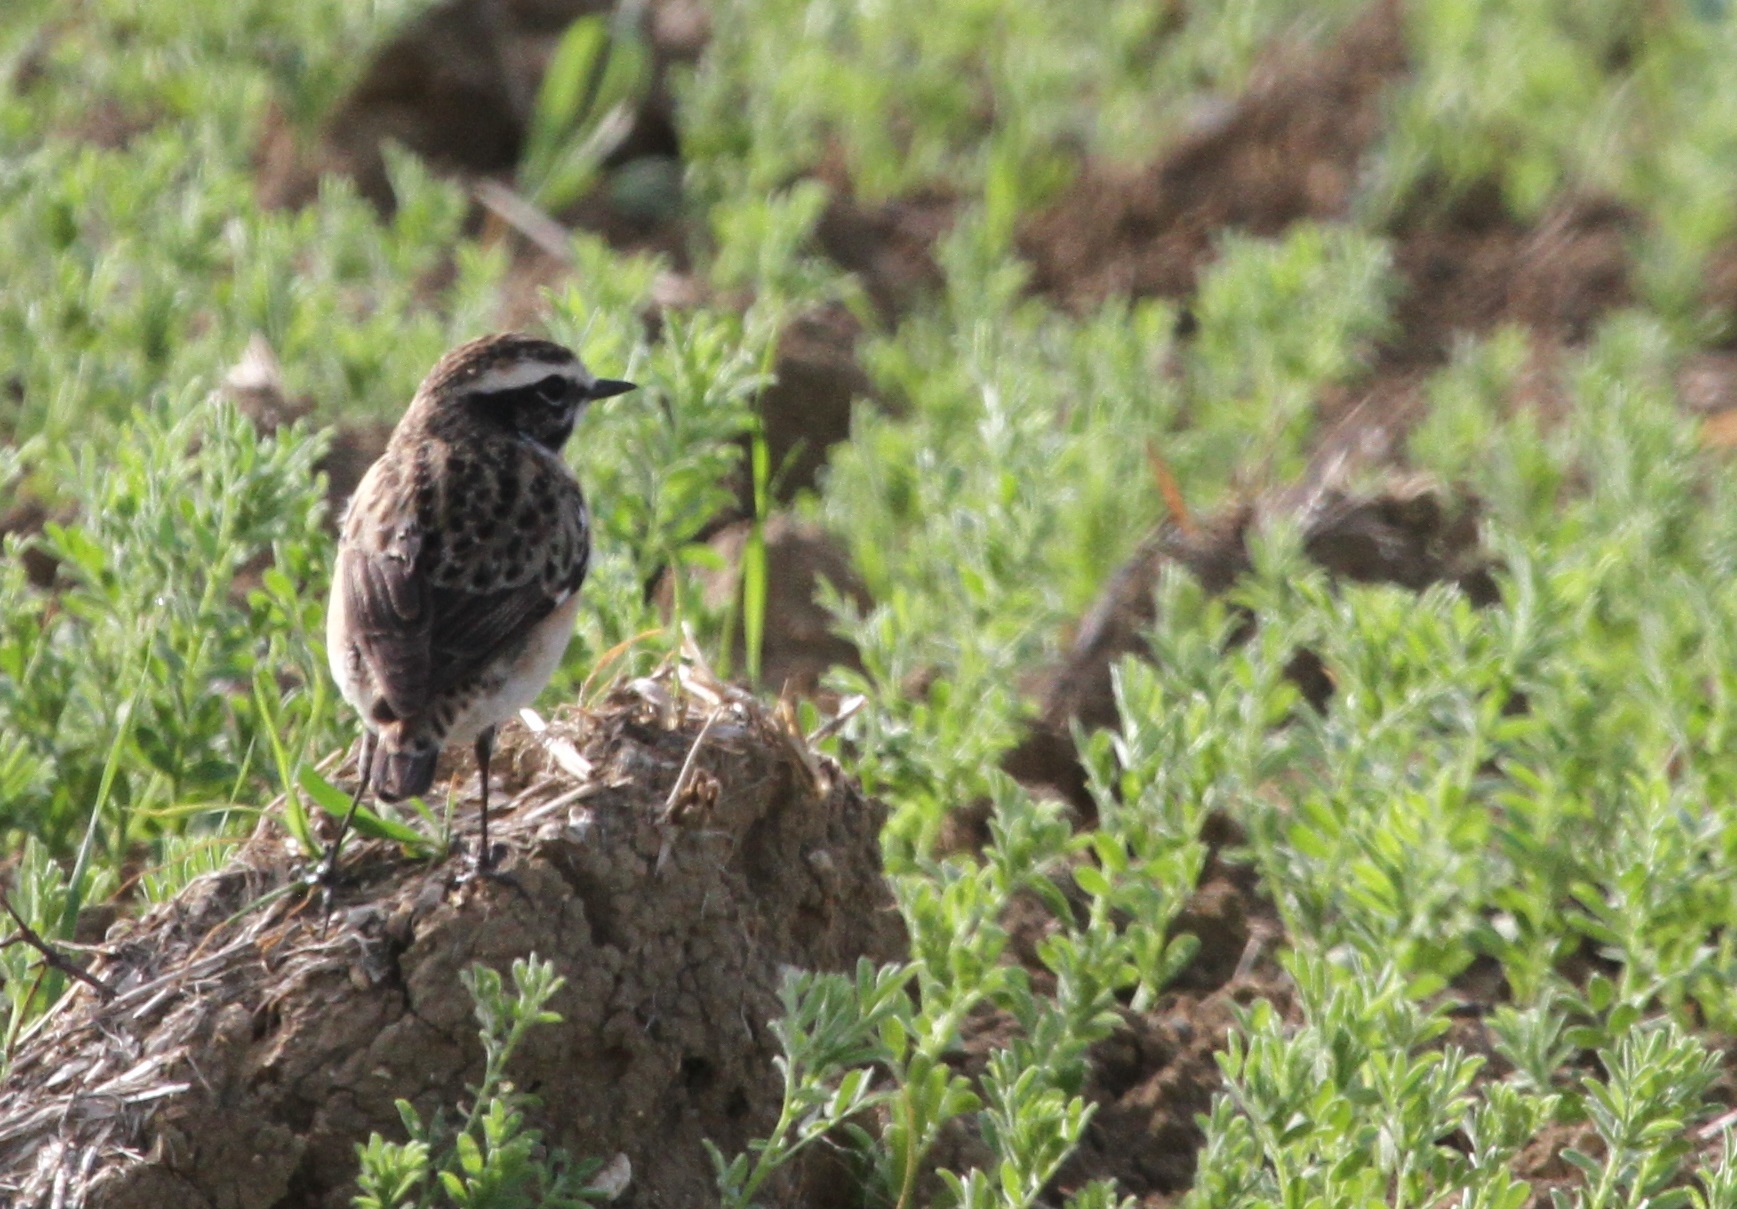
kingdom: Animalia
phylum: Chordata
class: Aves
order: Passeriformes
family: Muscicapidae
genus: Saxicola
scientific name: Saxicola rubetra
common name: Whinchat
